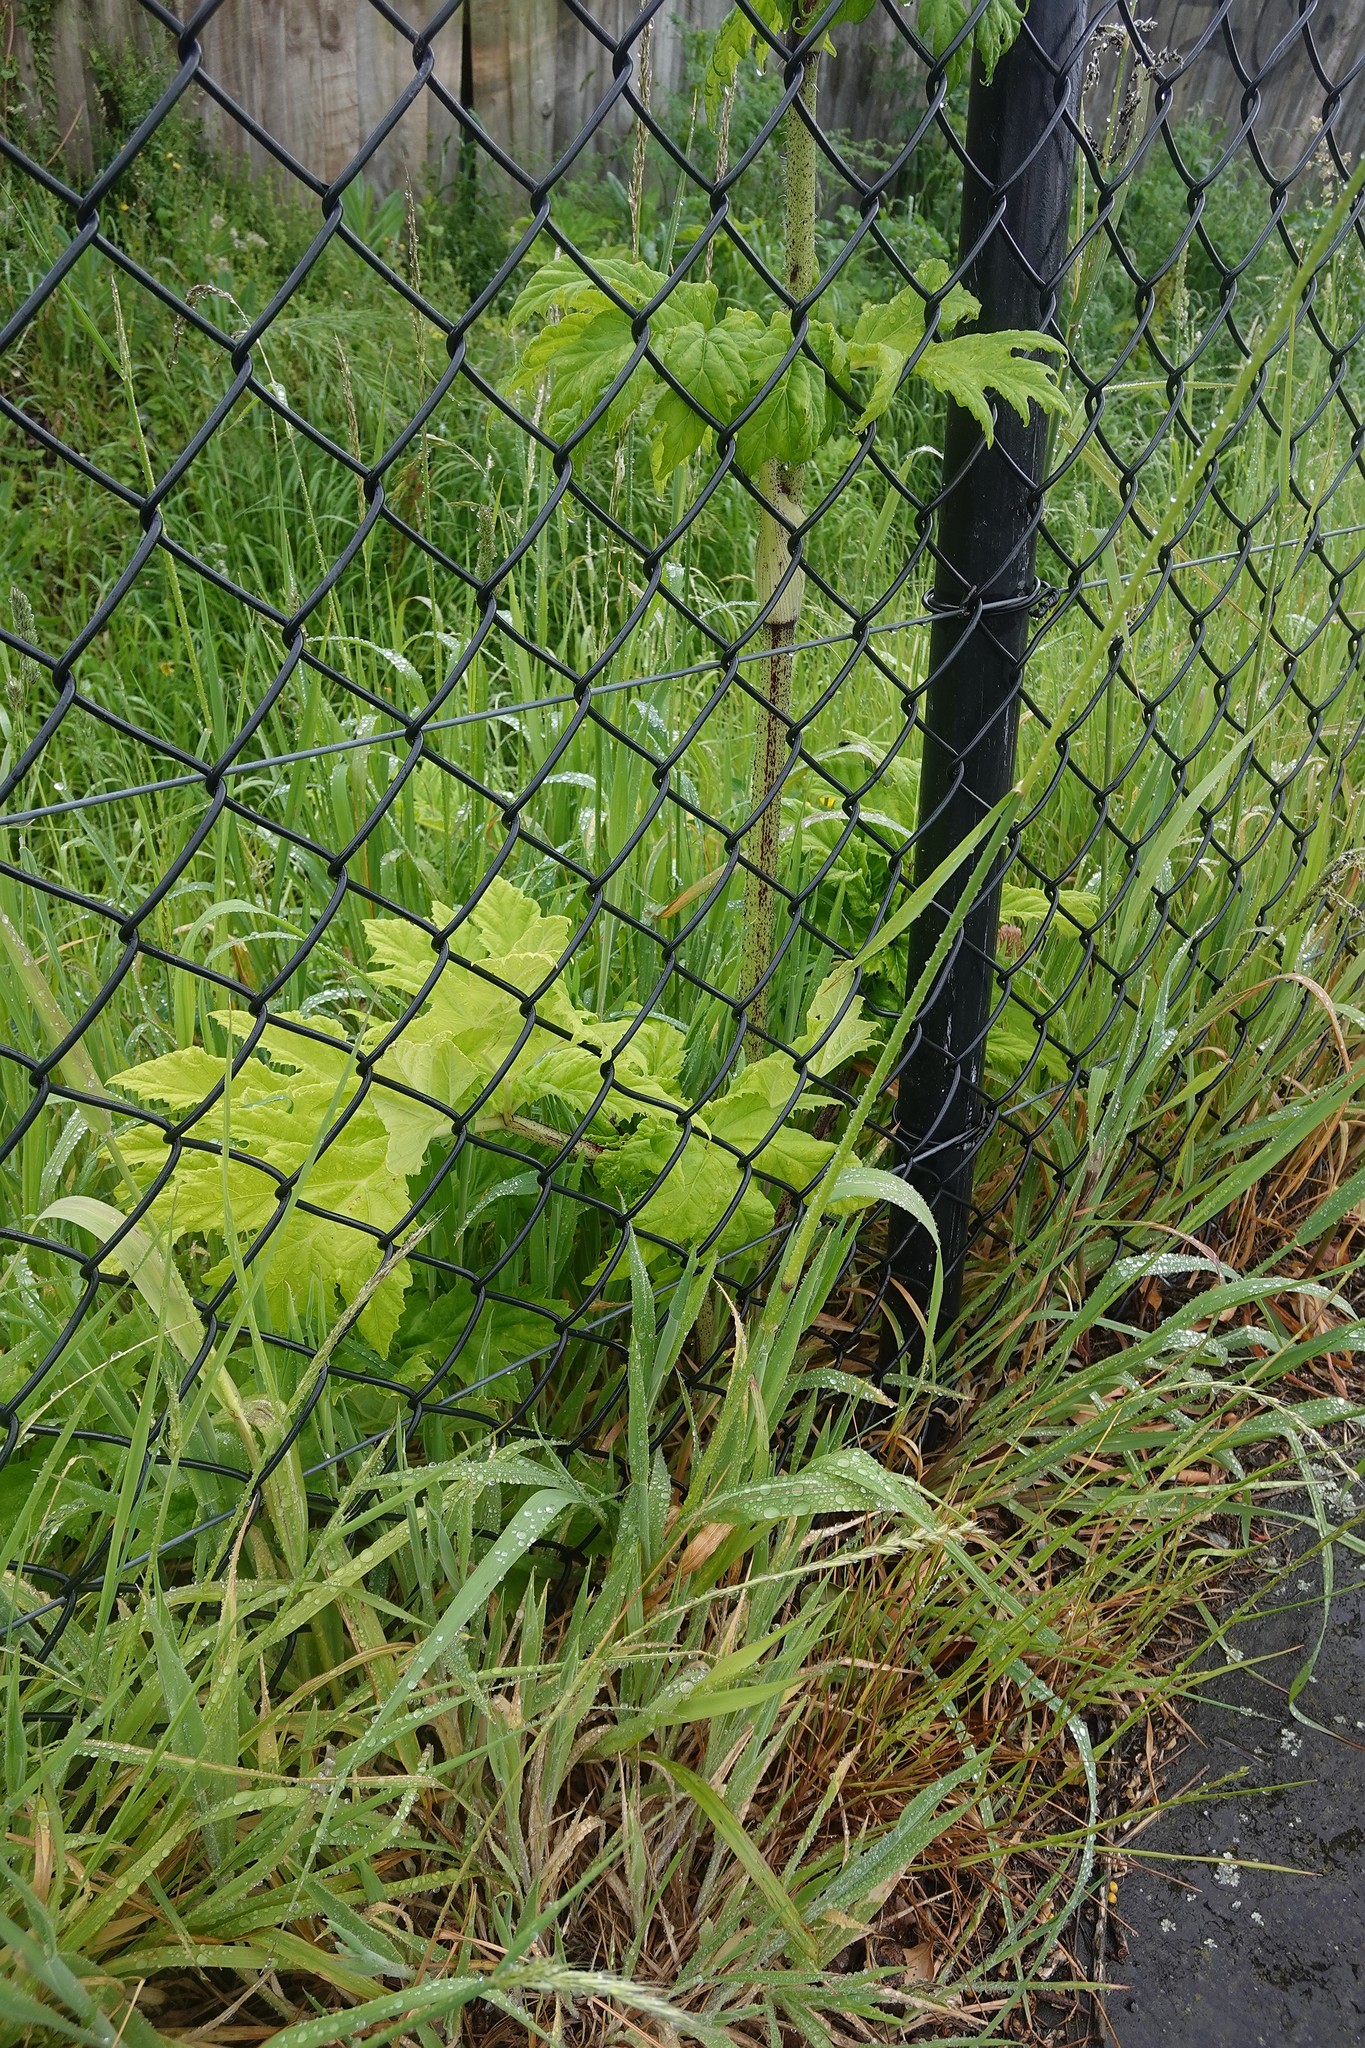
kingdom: Plantae
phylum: Tracheophyta
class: Magnoliopsida
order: Apiales
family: Apiaceae
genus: Heracleum
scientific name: Heracleum mantegazzianum
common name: Giant hogweed
